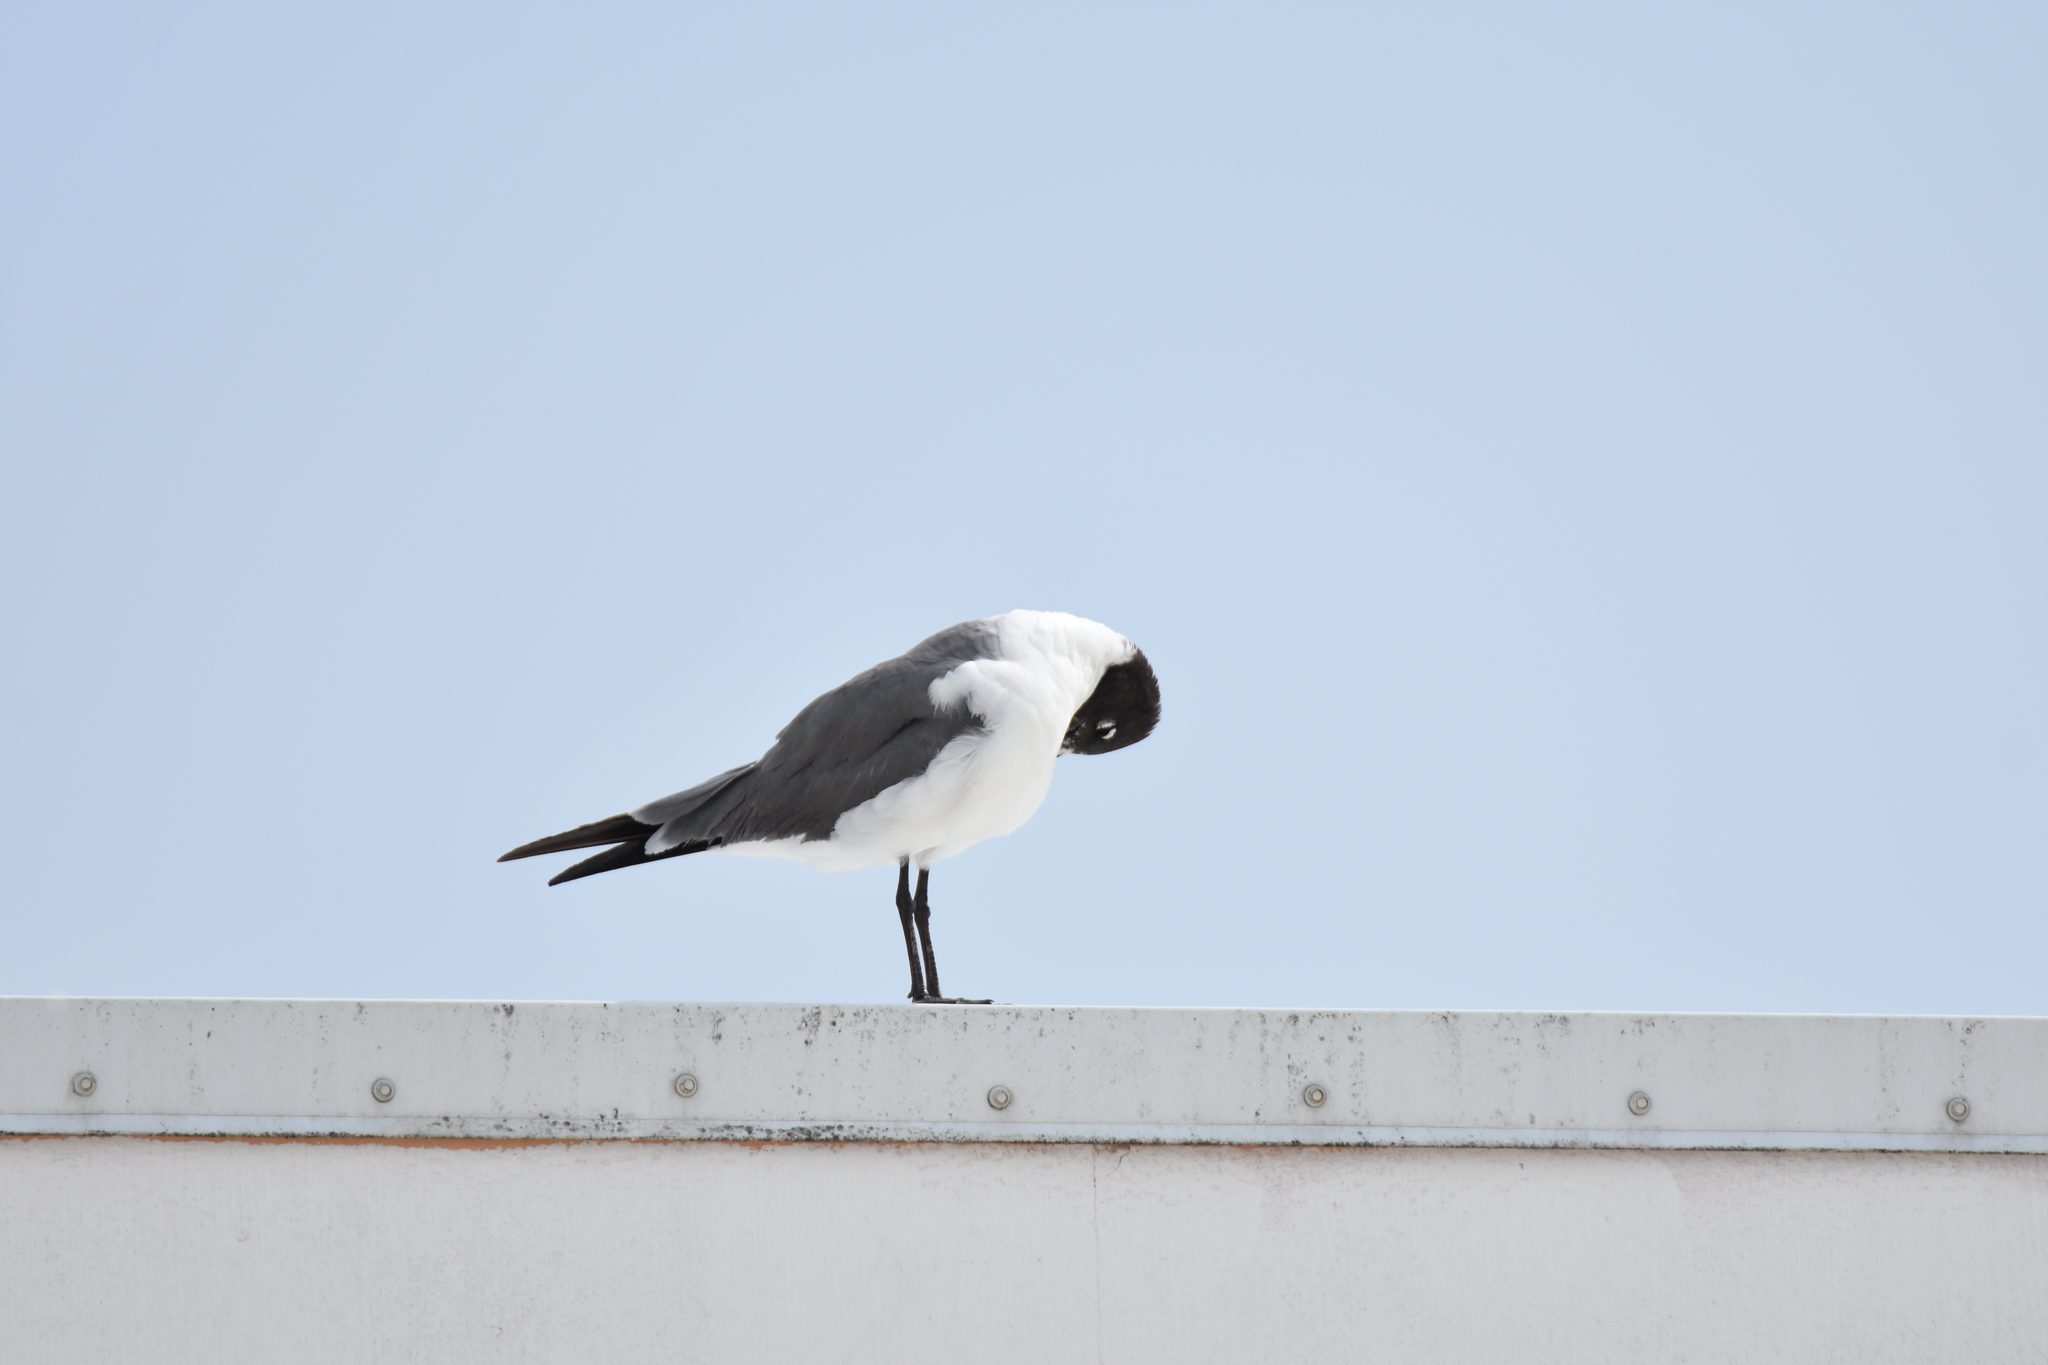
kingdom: Animalia
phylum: Chordata
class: Aves
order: Charadriiformes
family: Laridae
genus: Leucophaeus
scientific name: Leucophaeus atricilla
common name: Laughing gull
